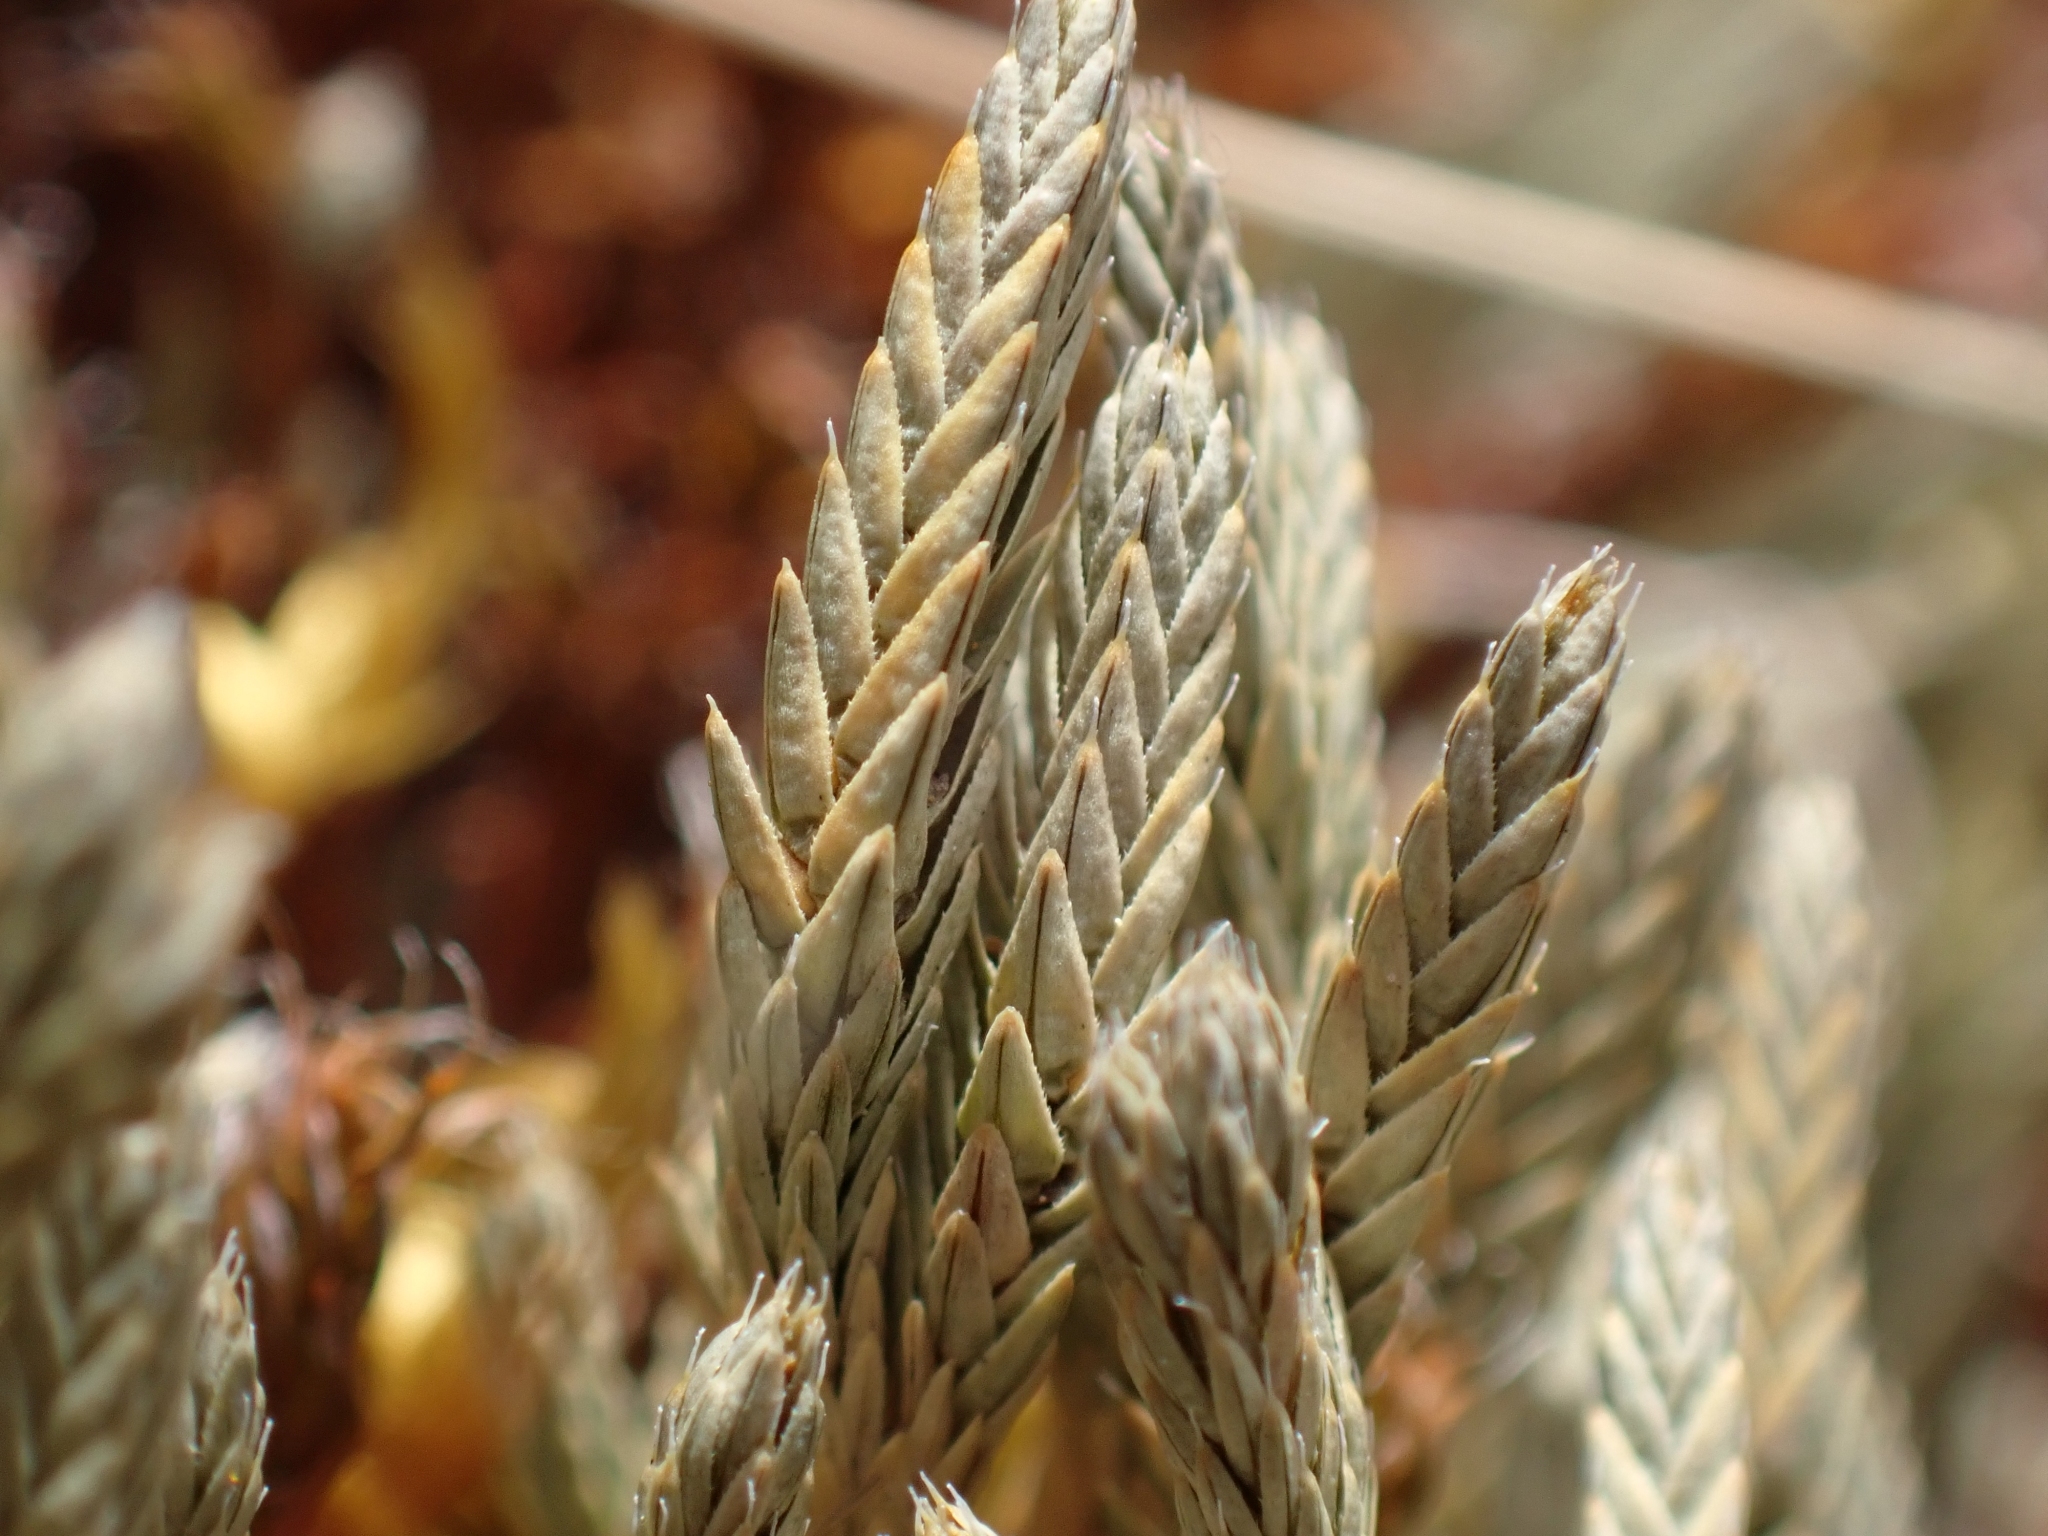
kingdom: Plantae
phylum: Tracheophyta
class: Lycopodiopsida
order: Selaginellales
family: Selaginellaceae
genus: Selaginella
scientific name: Selaginella wallacei
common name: Wallace's selaginella
